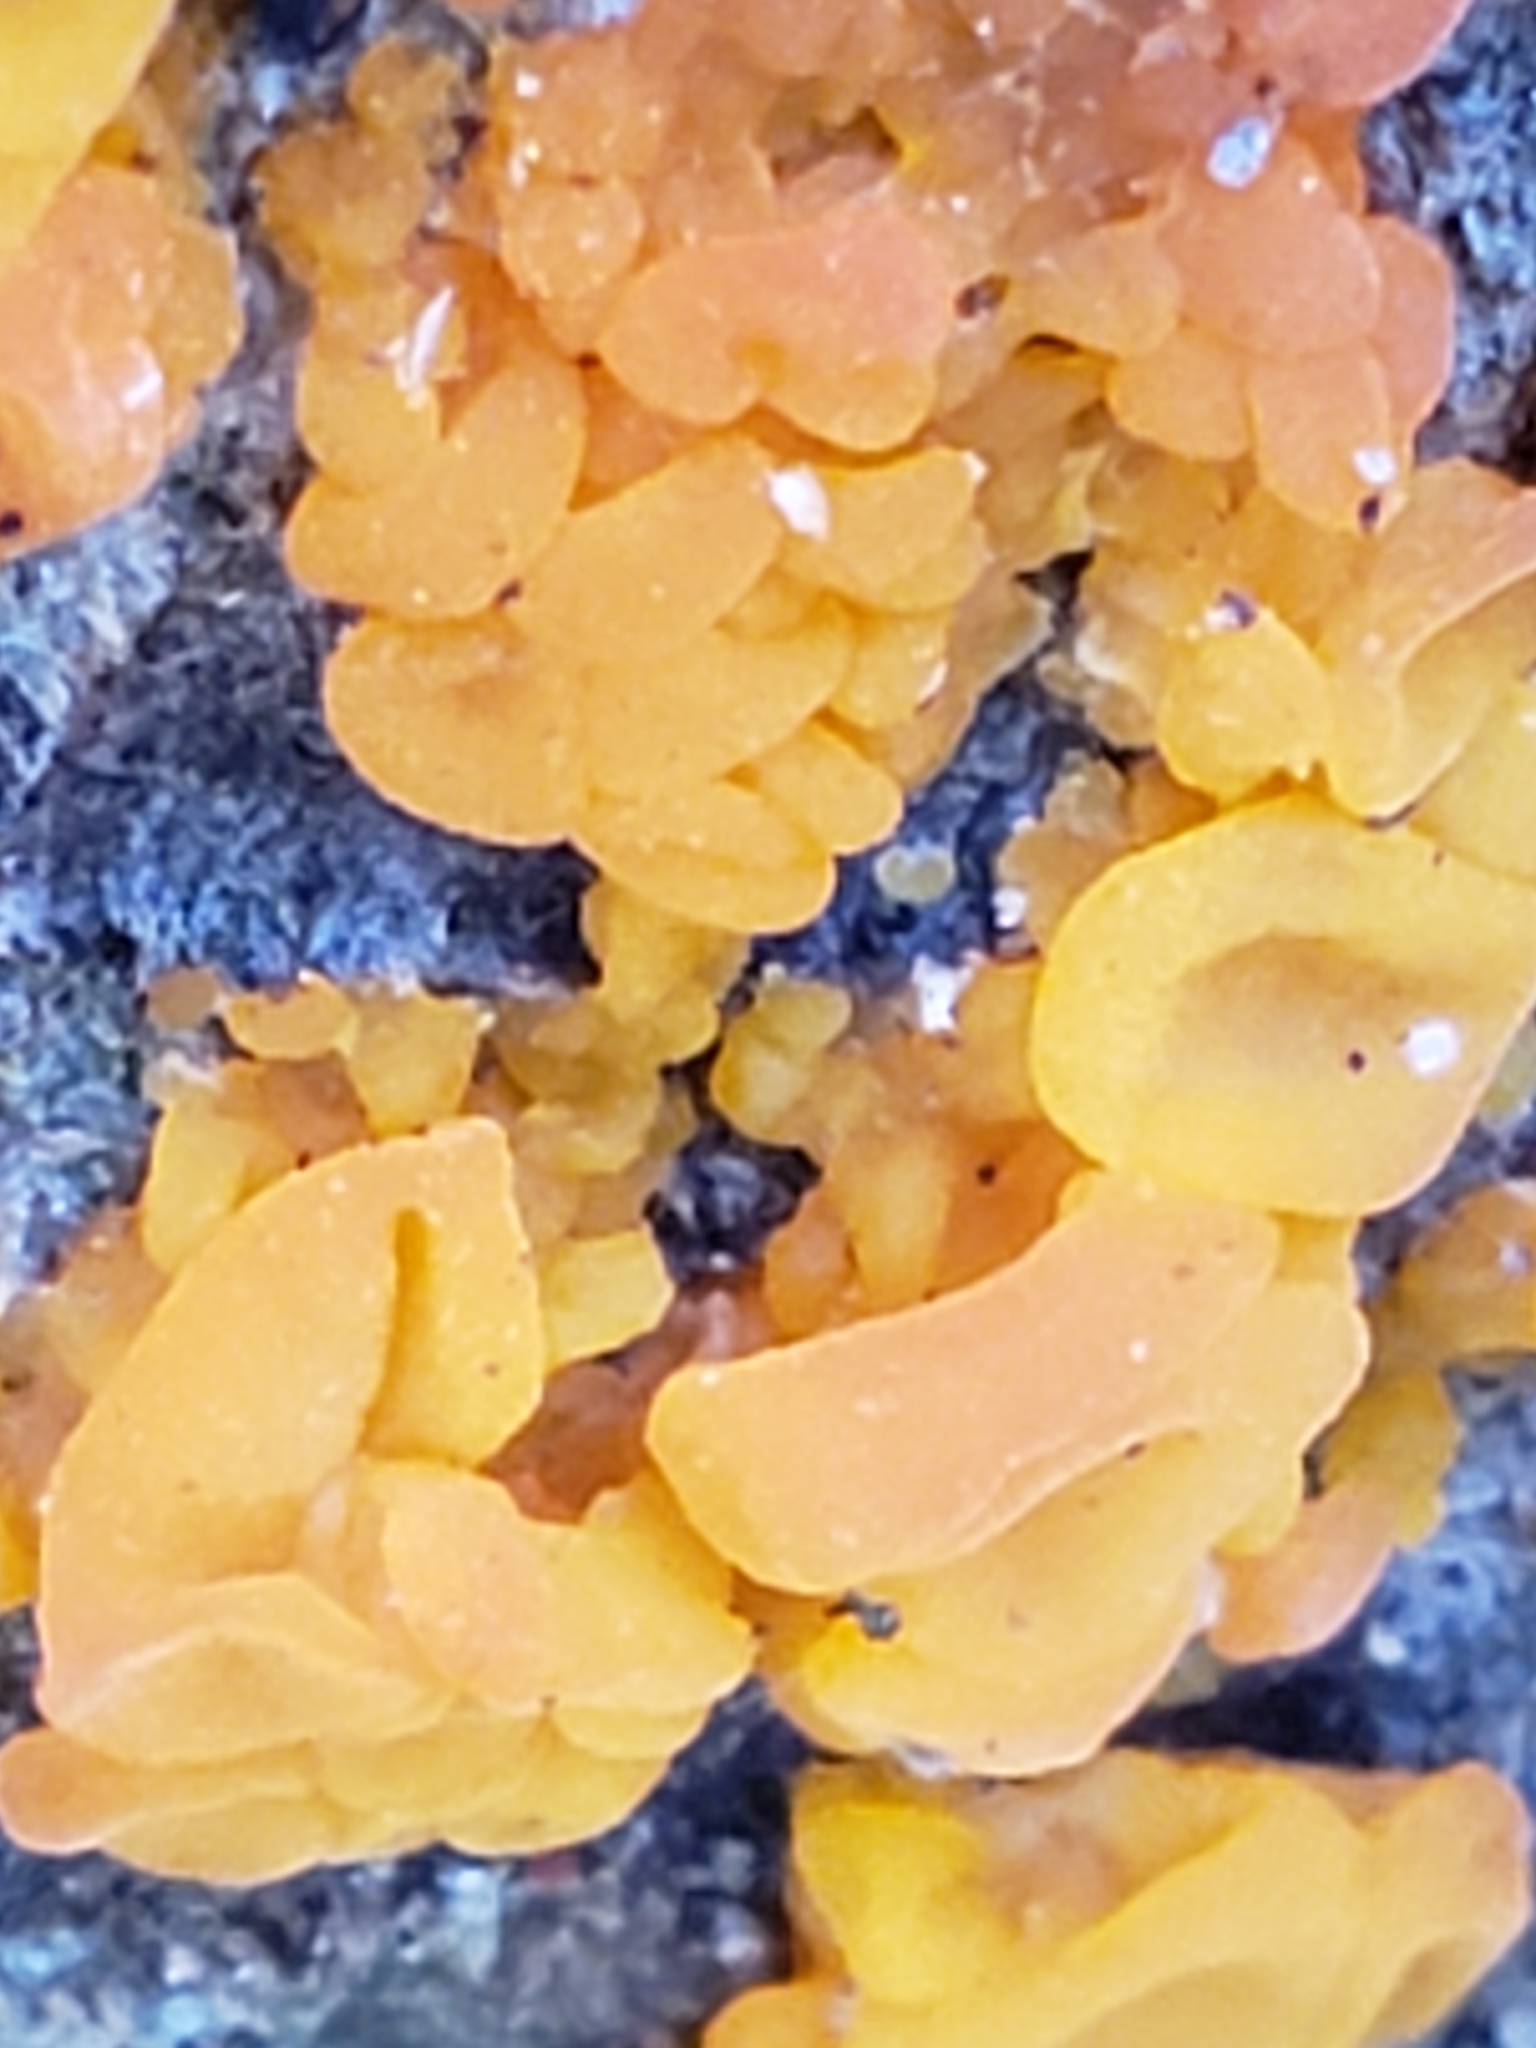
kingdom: Fungi
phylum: Basidiomycota
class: Dacrymycetes
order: Dacrymycetales
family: Dacrymycetaceae
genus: Dacrymyces
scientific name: Dacrymyces chrysospermus
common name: Orange jelly spot
